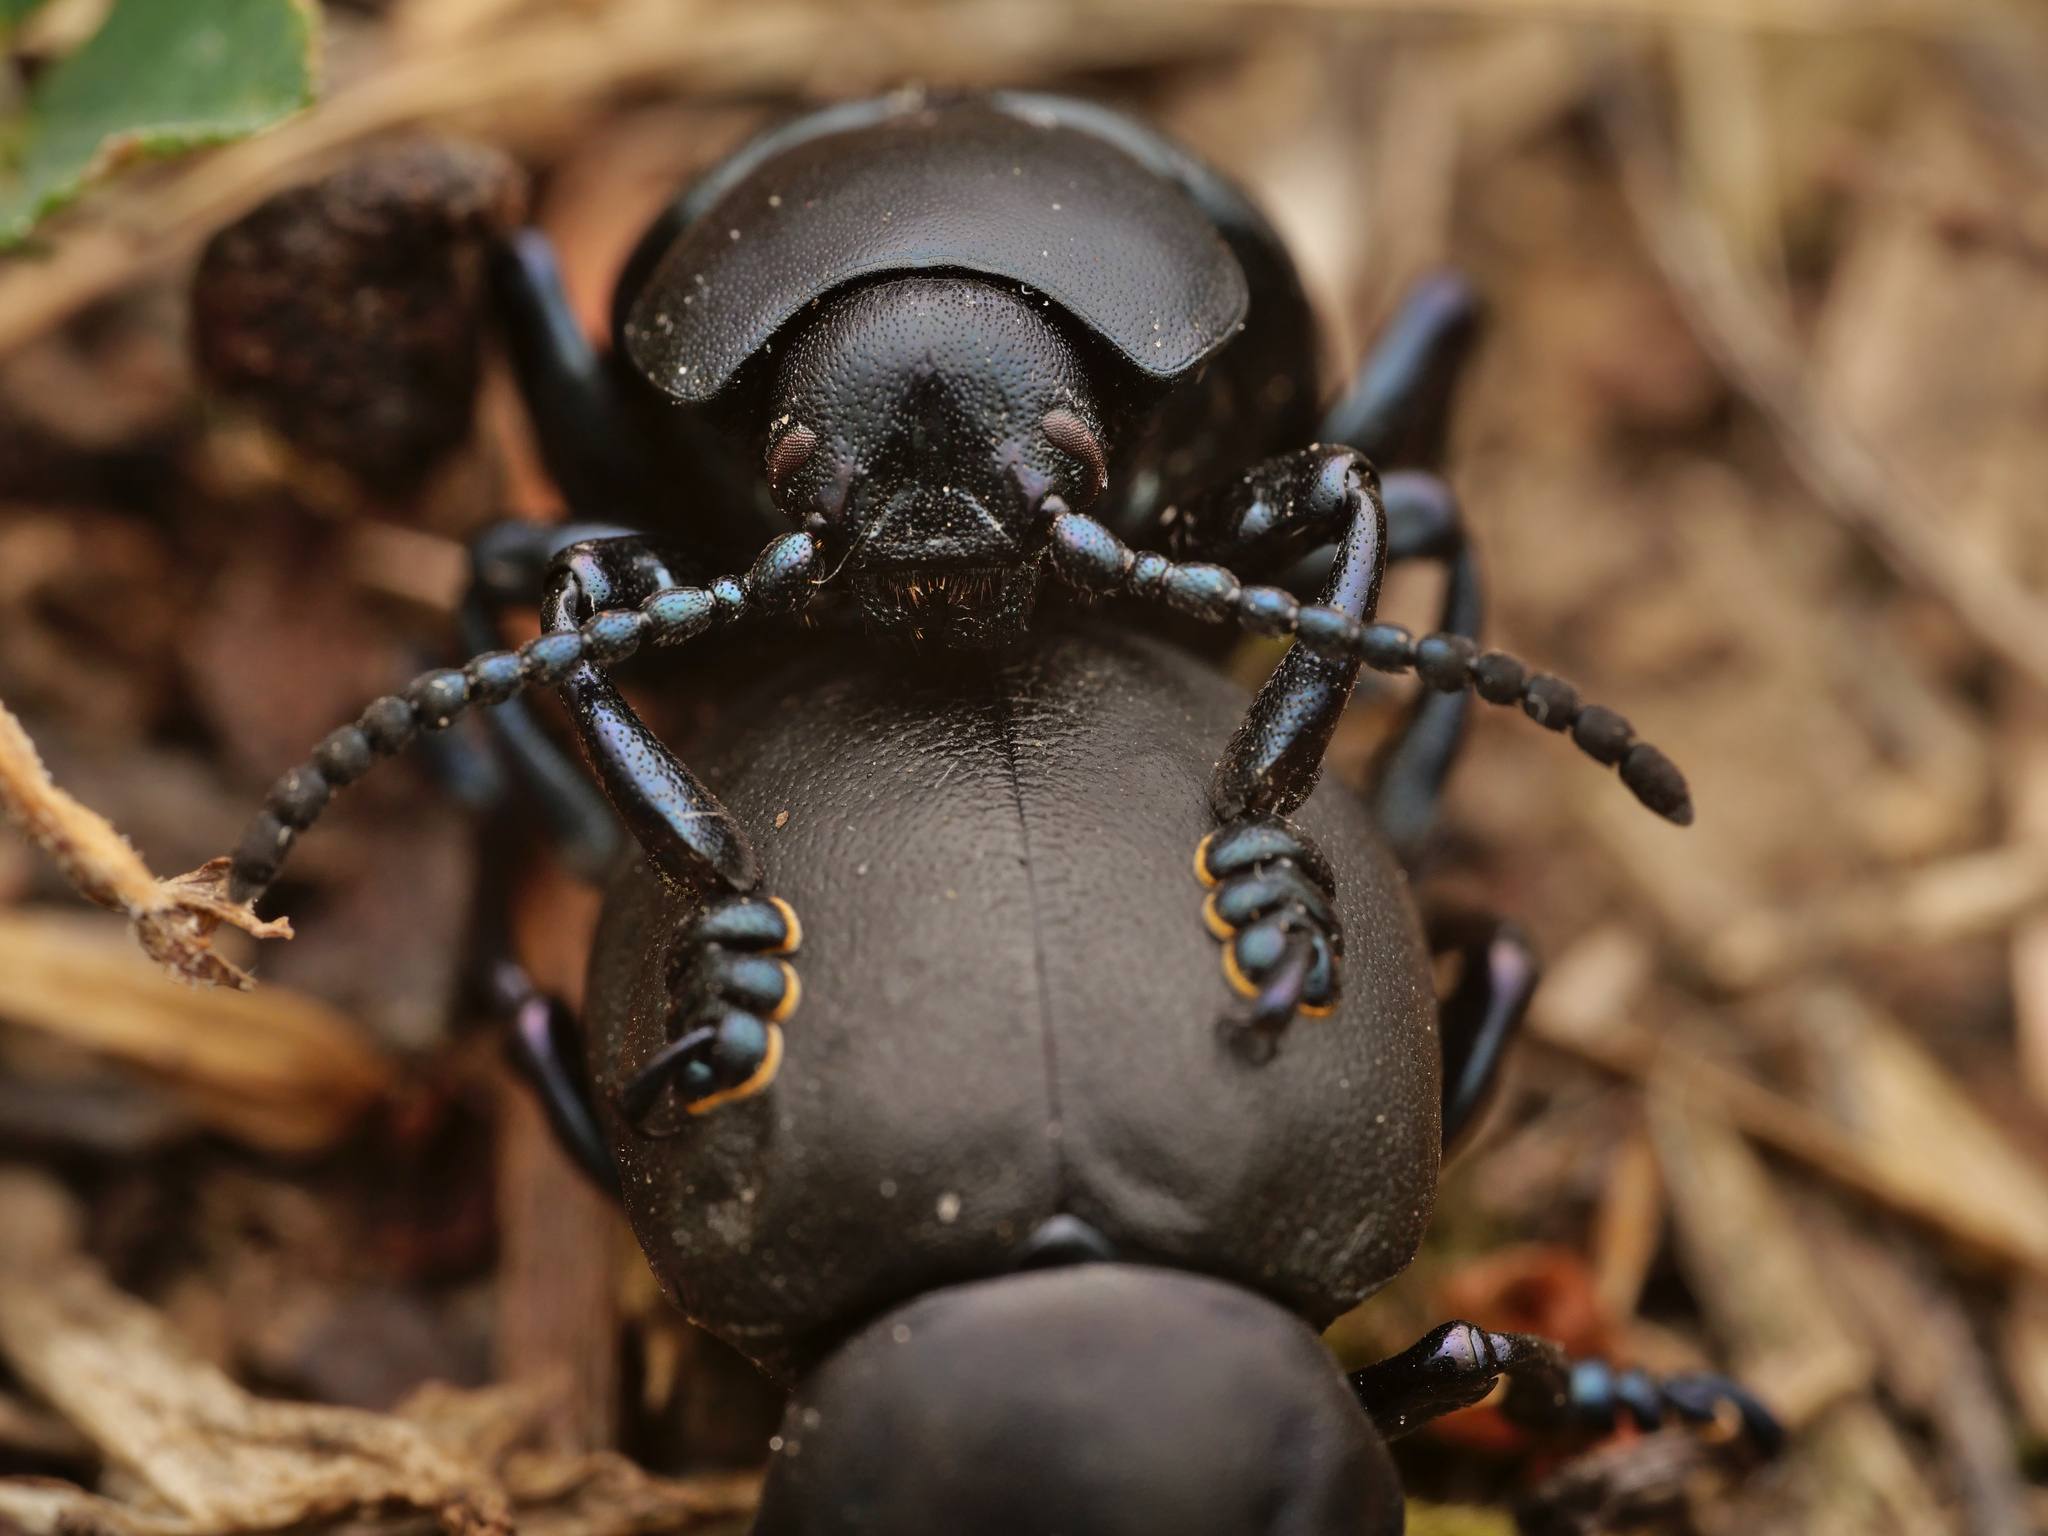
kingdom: Animalia
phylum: Arthropoda
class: Insecta
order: Coleoptera
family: Chrysomelidae
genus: Timarcha
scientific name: Timarcha tenebricosa
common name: Bloody-nosed beetle
